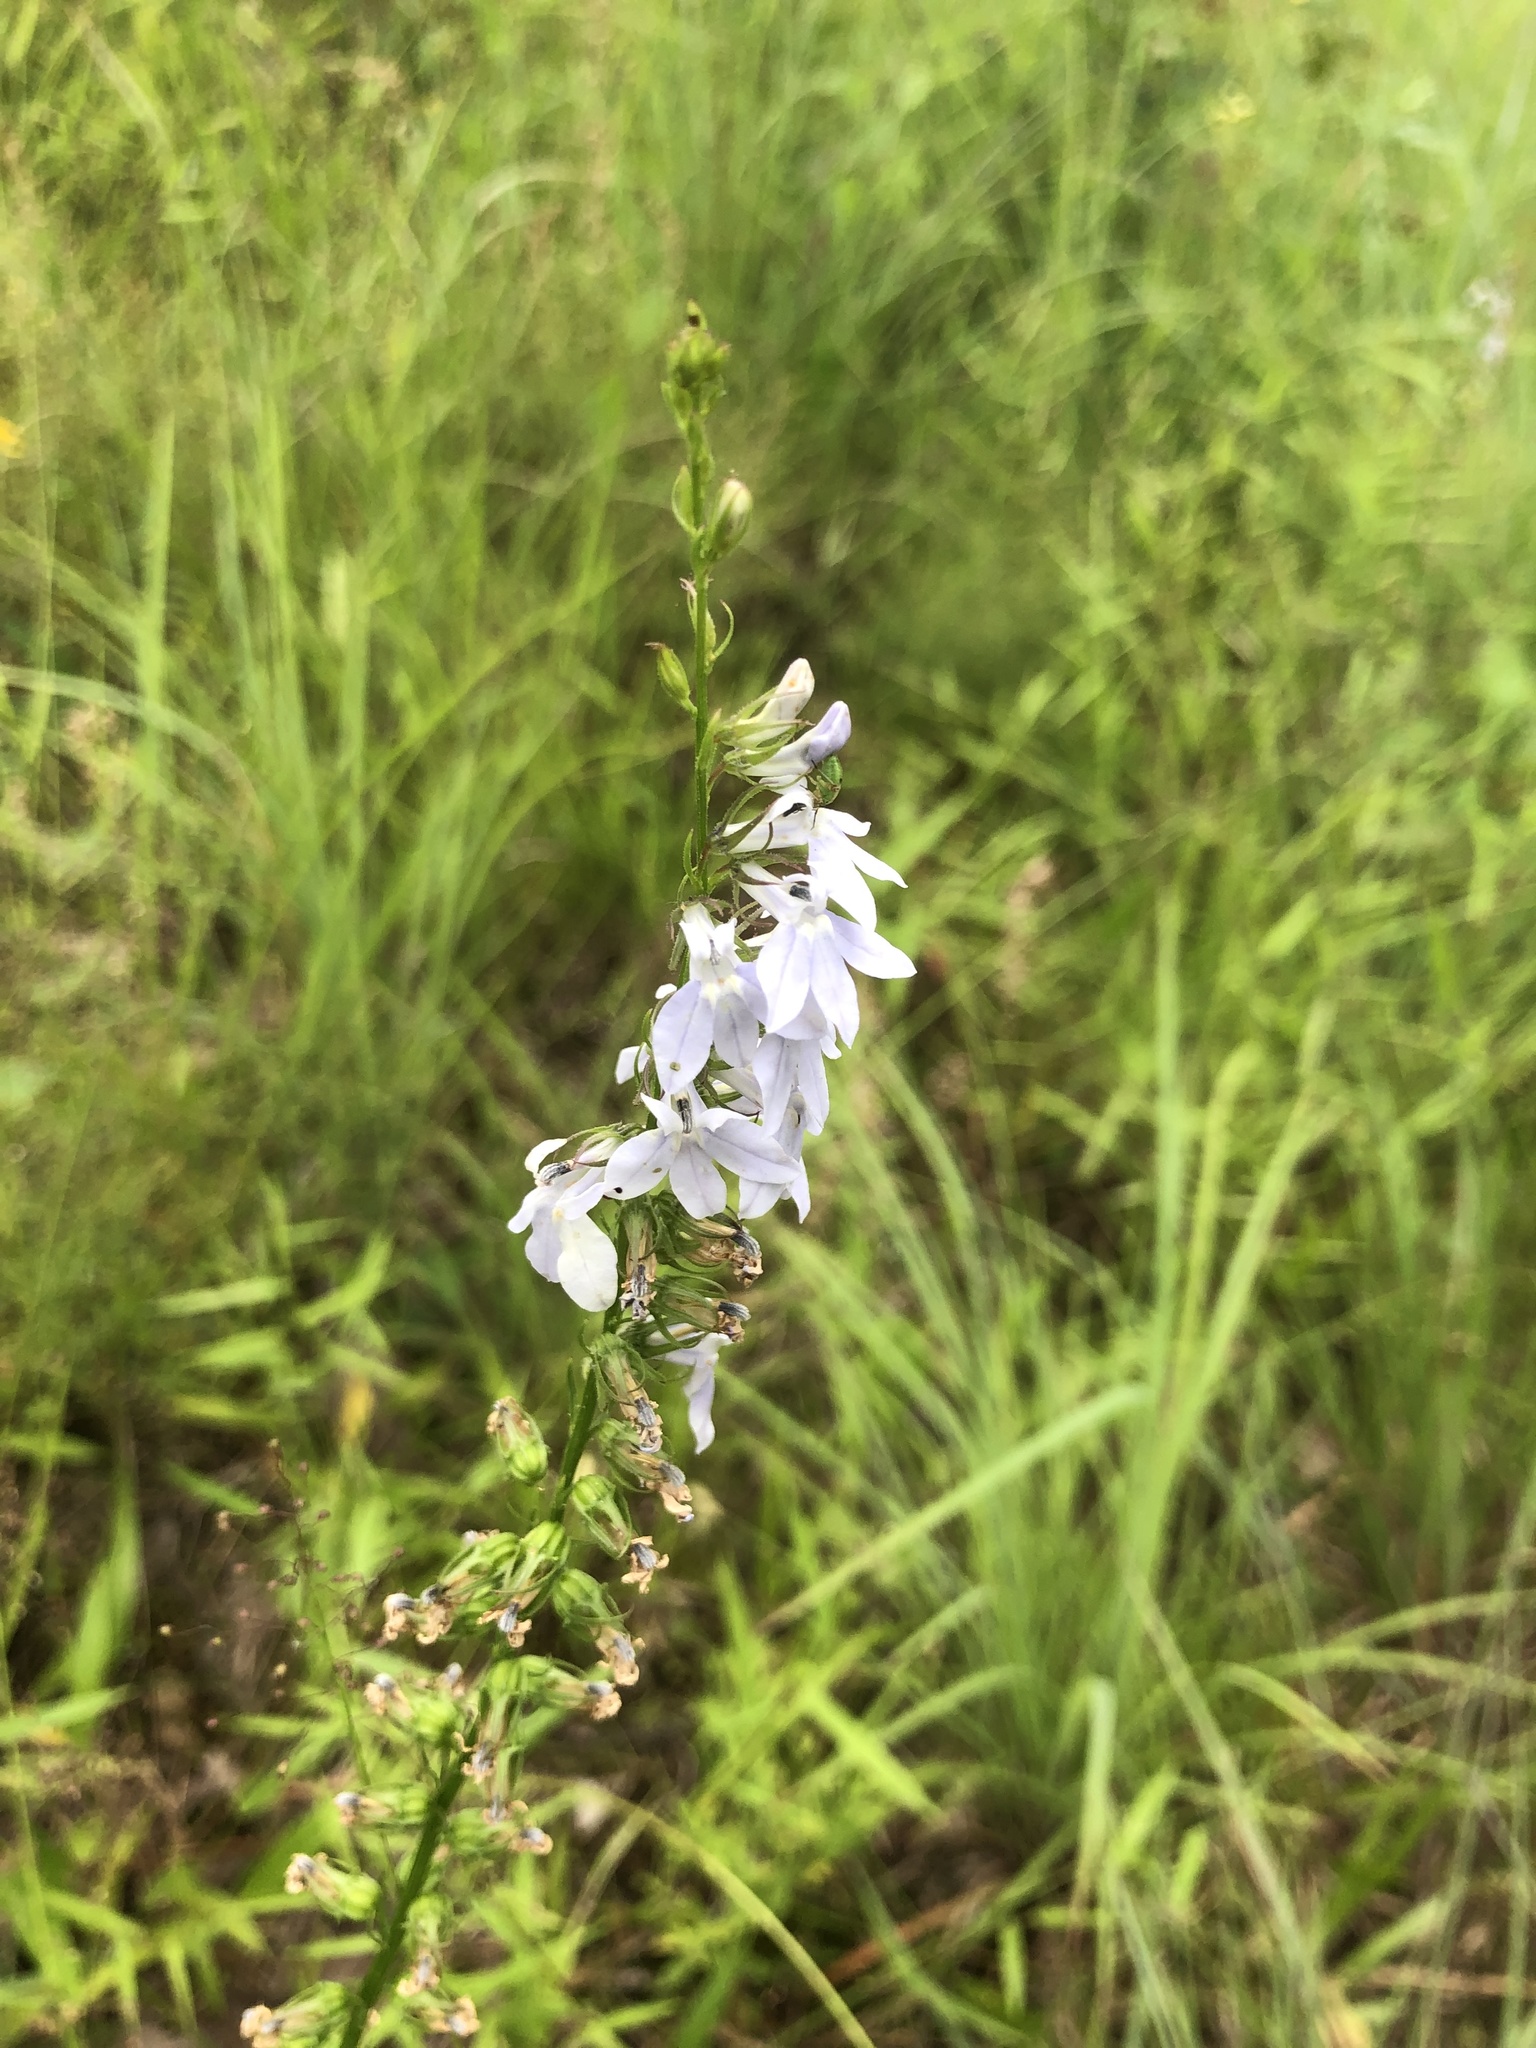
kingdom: Plantae
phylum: Tracheophyta
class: Magnoliopsida
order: Asterales
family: Campanulaceae
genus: Lobelia
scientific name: Lobelia appendiculata
